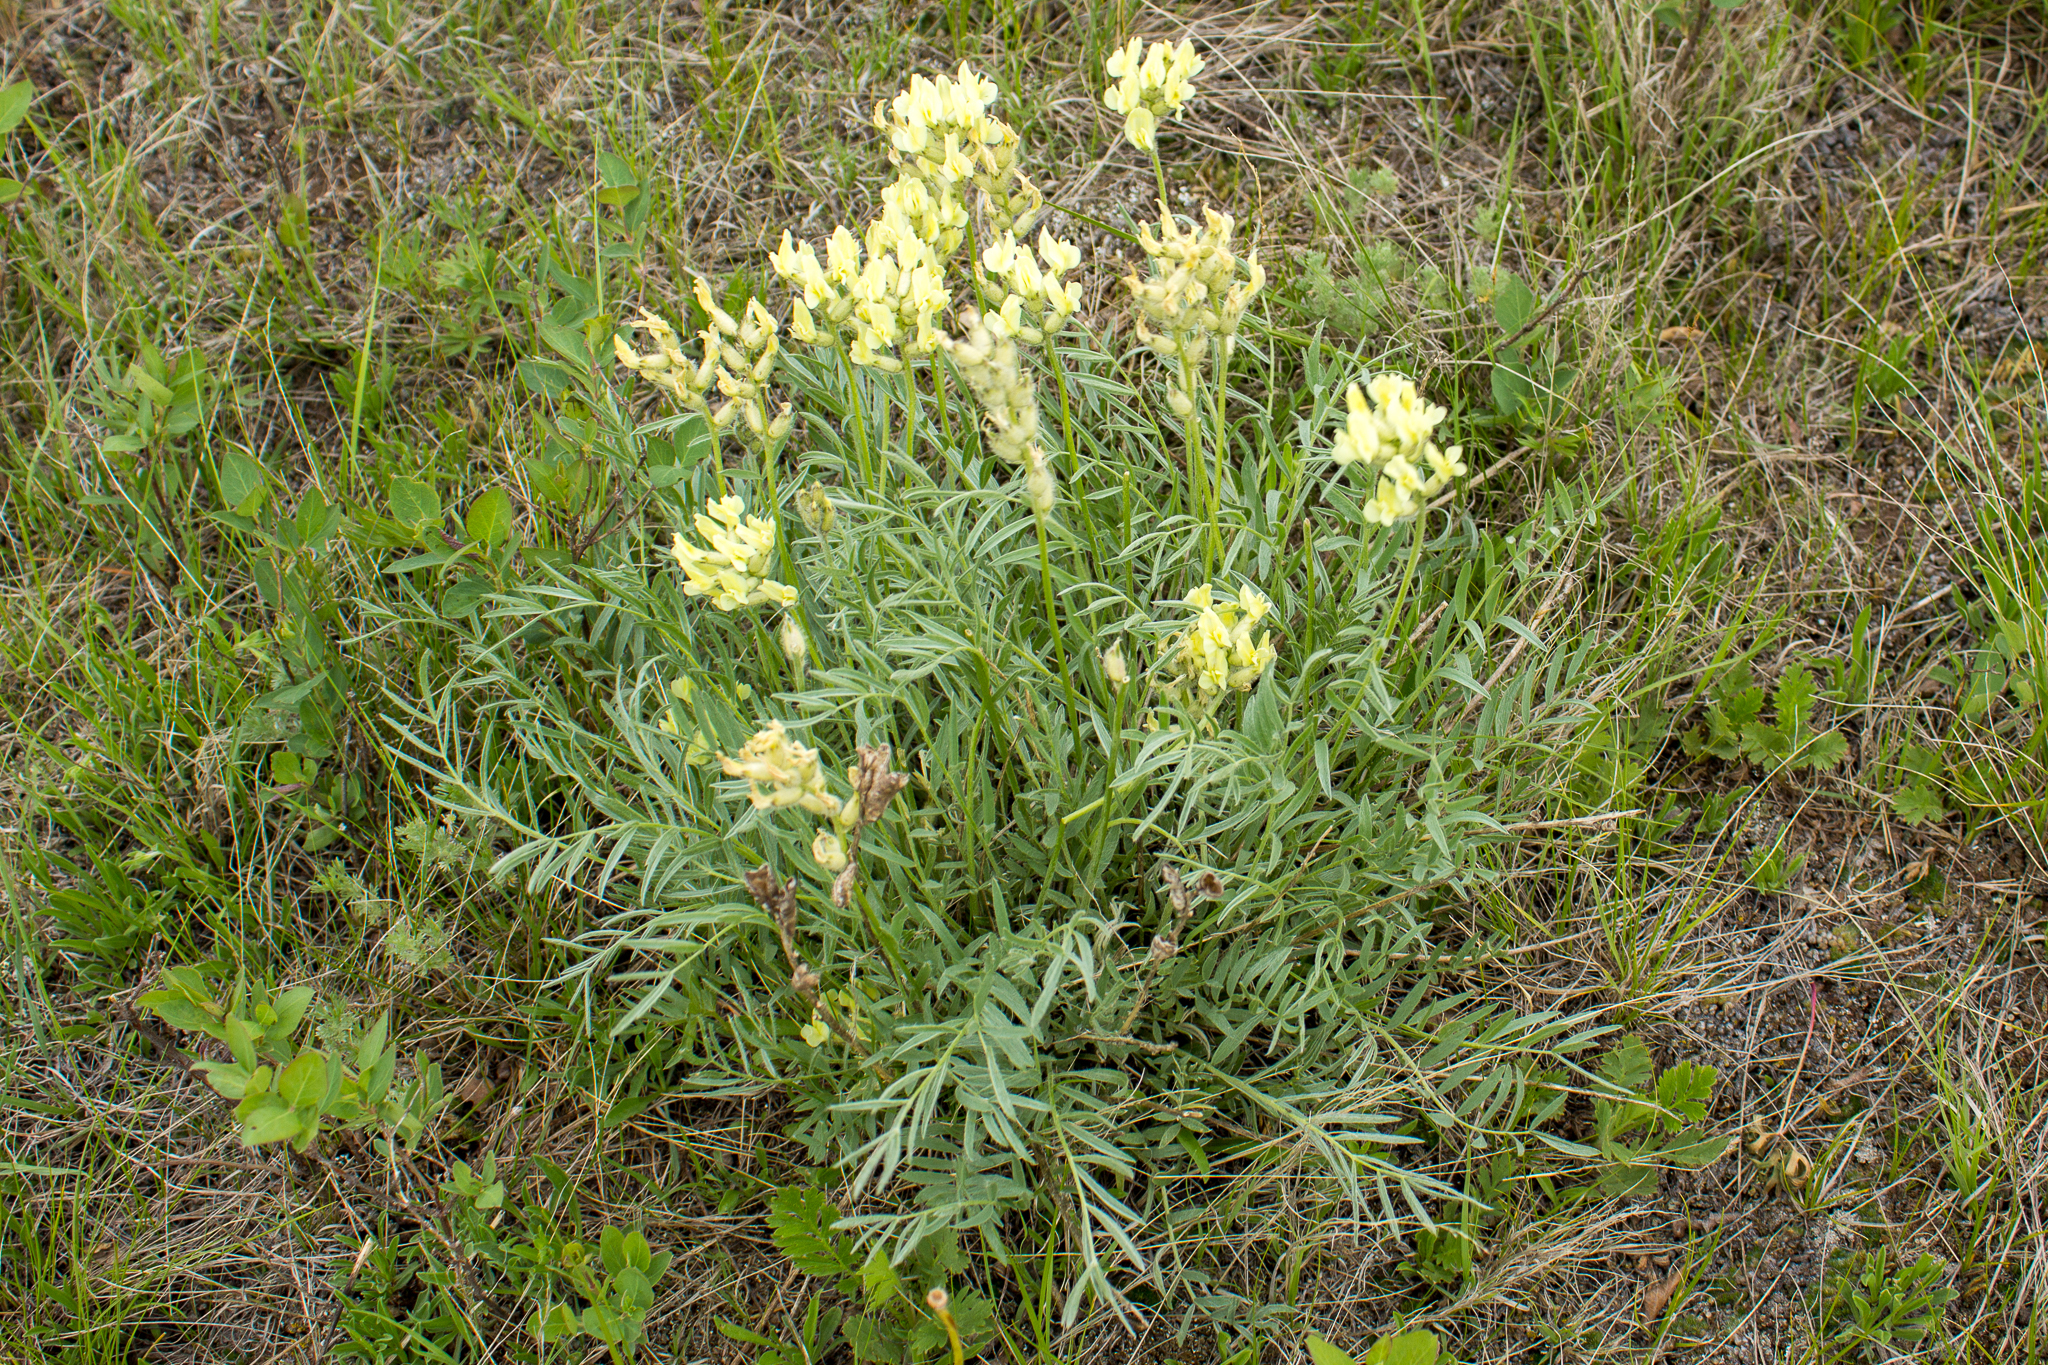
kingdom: Plantae
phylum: Tracheophyta
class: Magnoliopsida
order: Fabales
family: Fabaceae
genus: Oxytropis
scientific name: Oxytropis campestris
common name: Field locoweed
